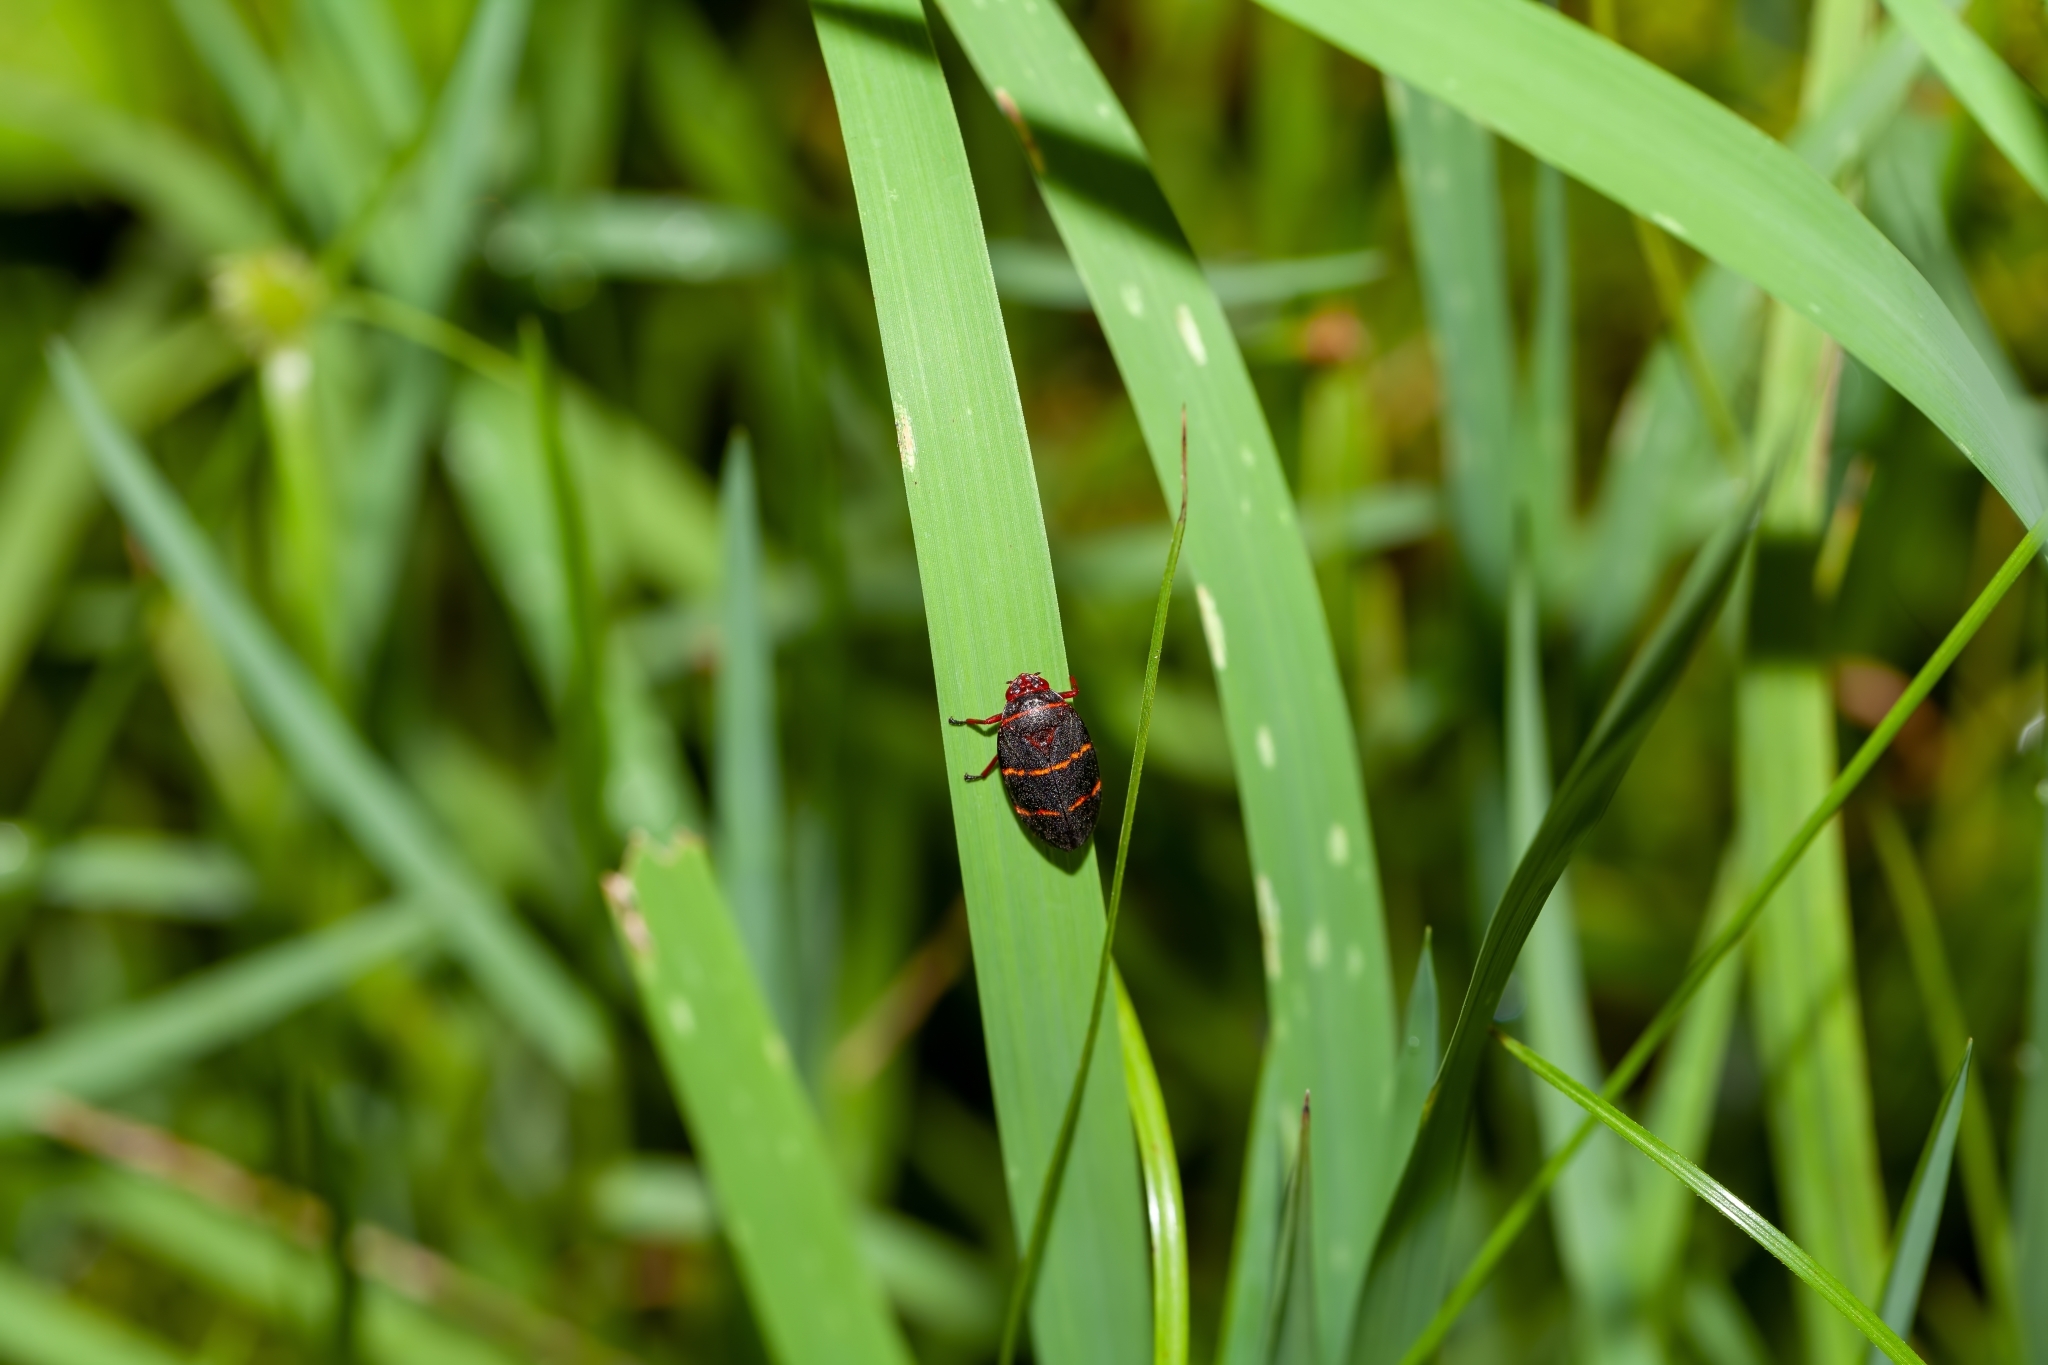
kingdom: Animalia
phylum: Arthropoda
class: Insecta
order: Hemiptera
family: Cercopidae
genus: Prosapia
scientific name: Prosapia bicincta
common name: Twolined spittlebug
